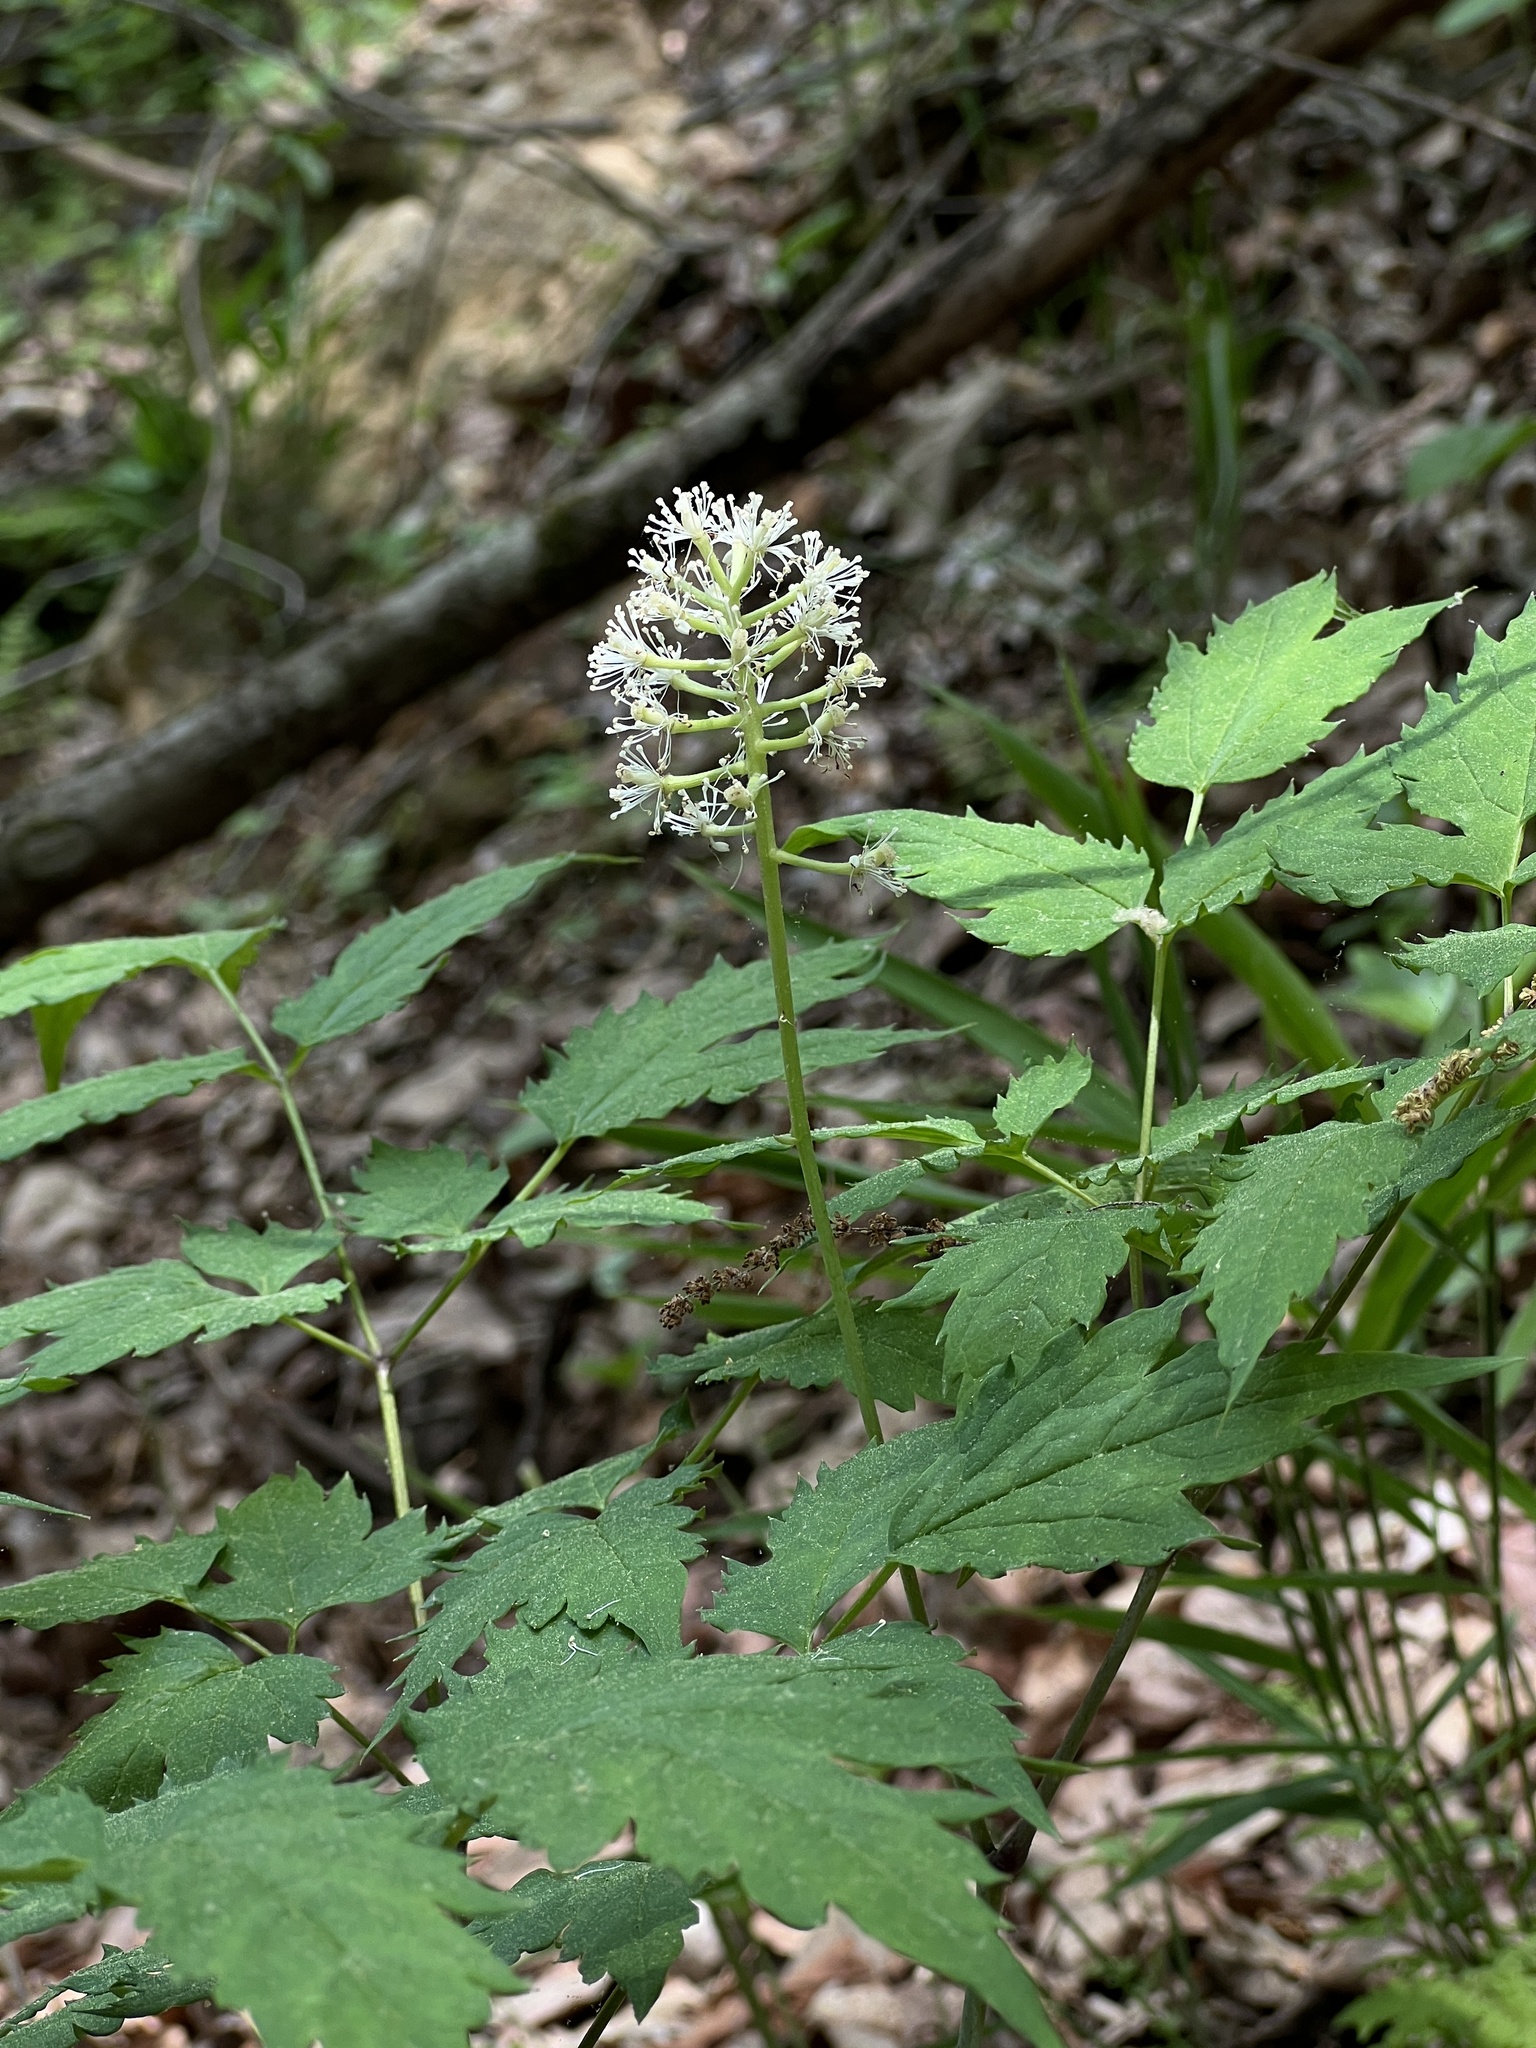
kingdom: Plantae
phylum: Tracheophyta
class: Magnoliopsida
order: Ranunculales
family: Ranunculaceae
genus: Actaea
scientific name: Actaea pachypoda
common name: Doll's-eyes
